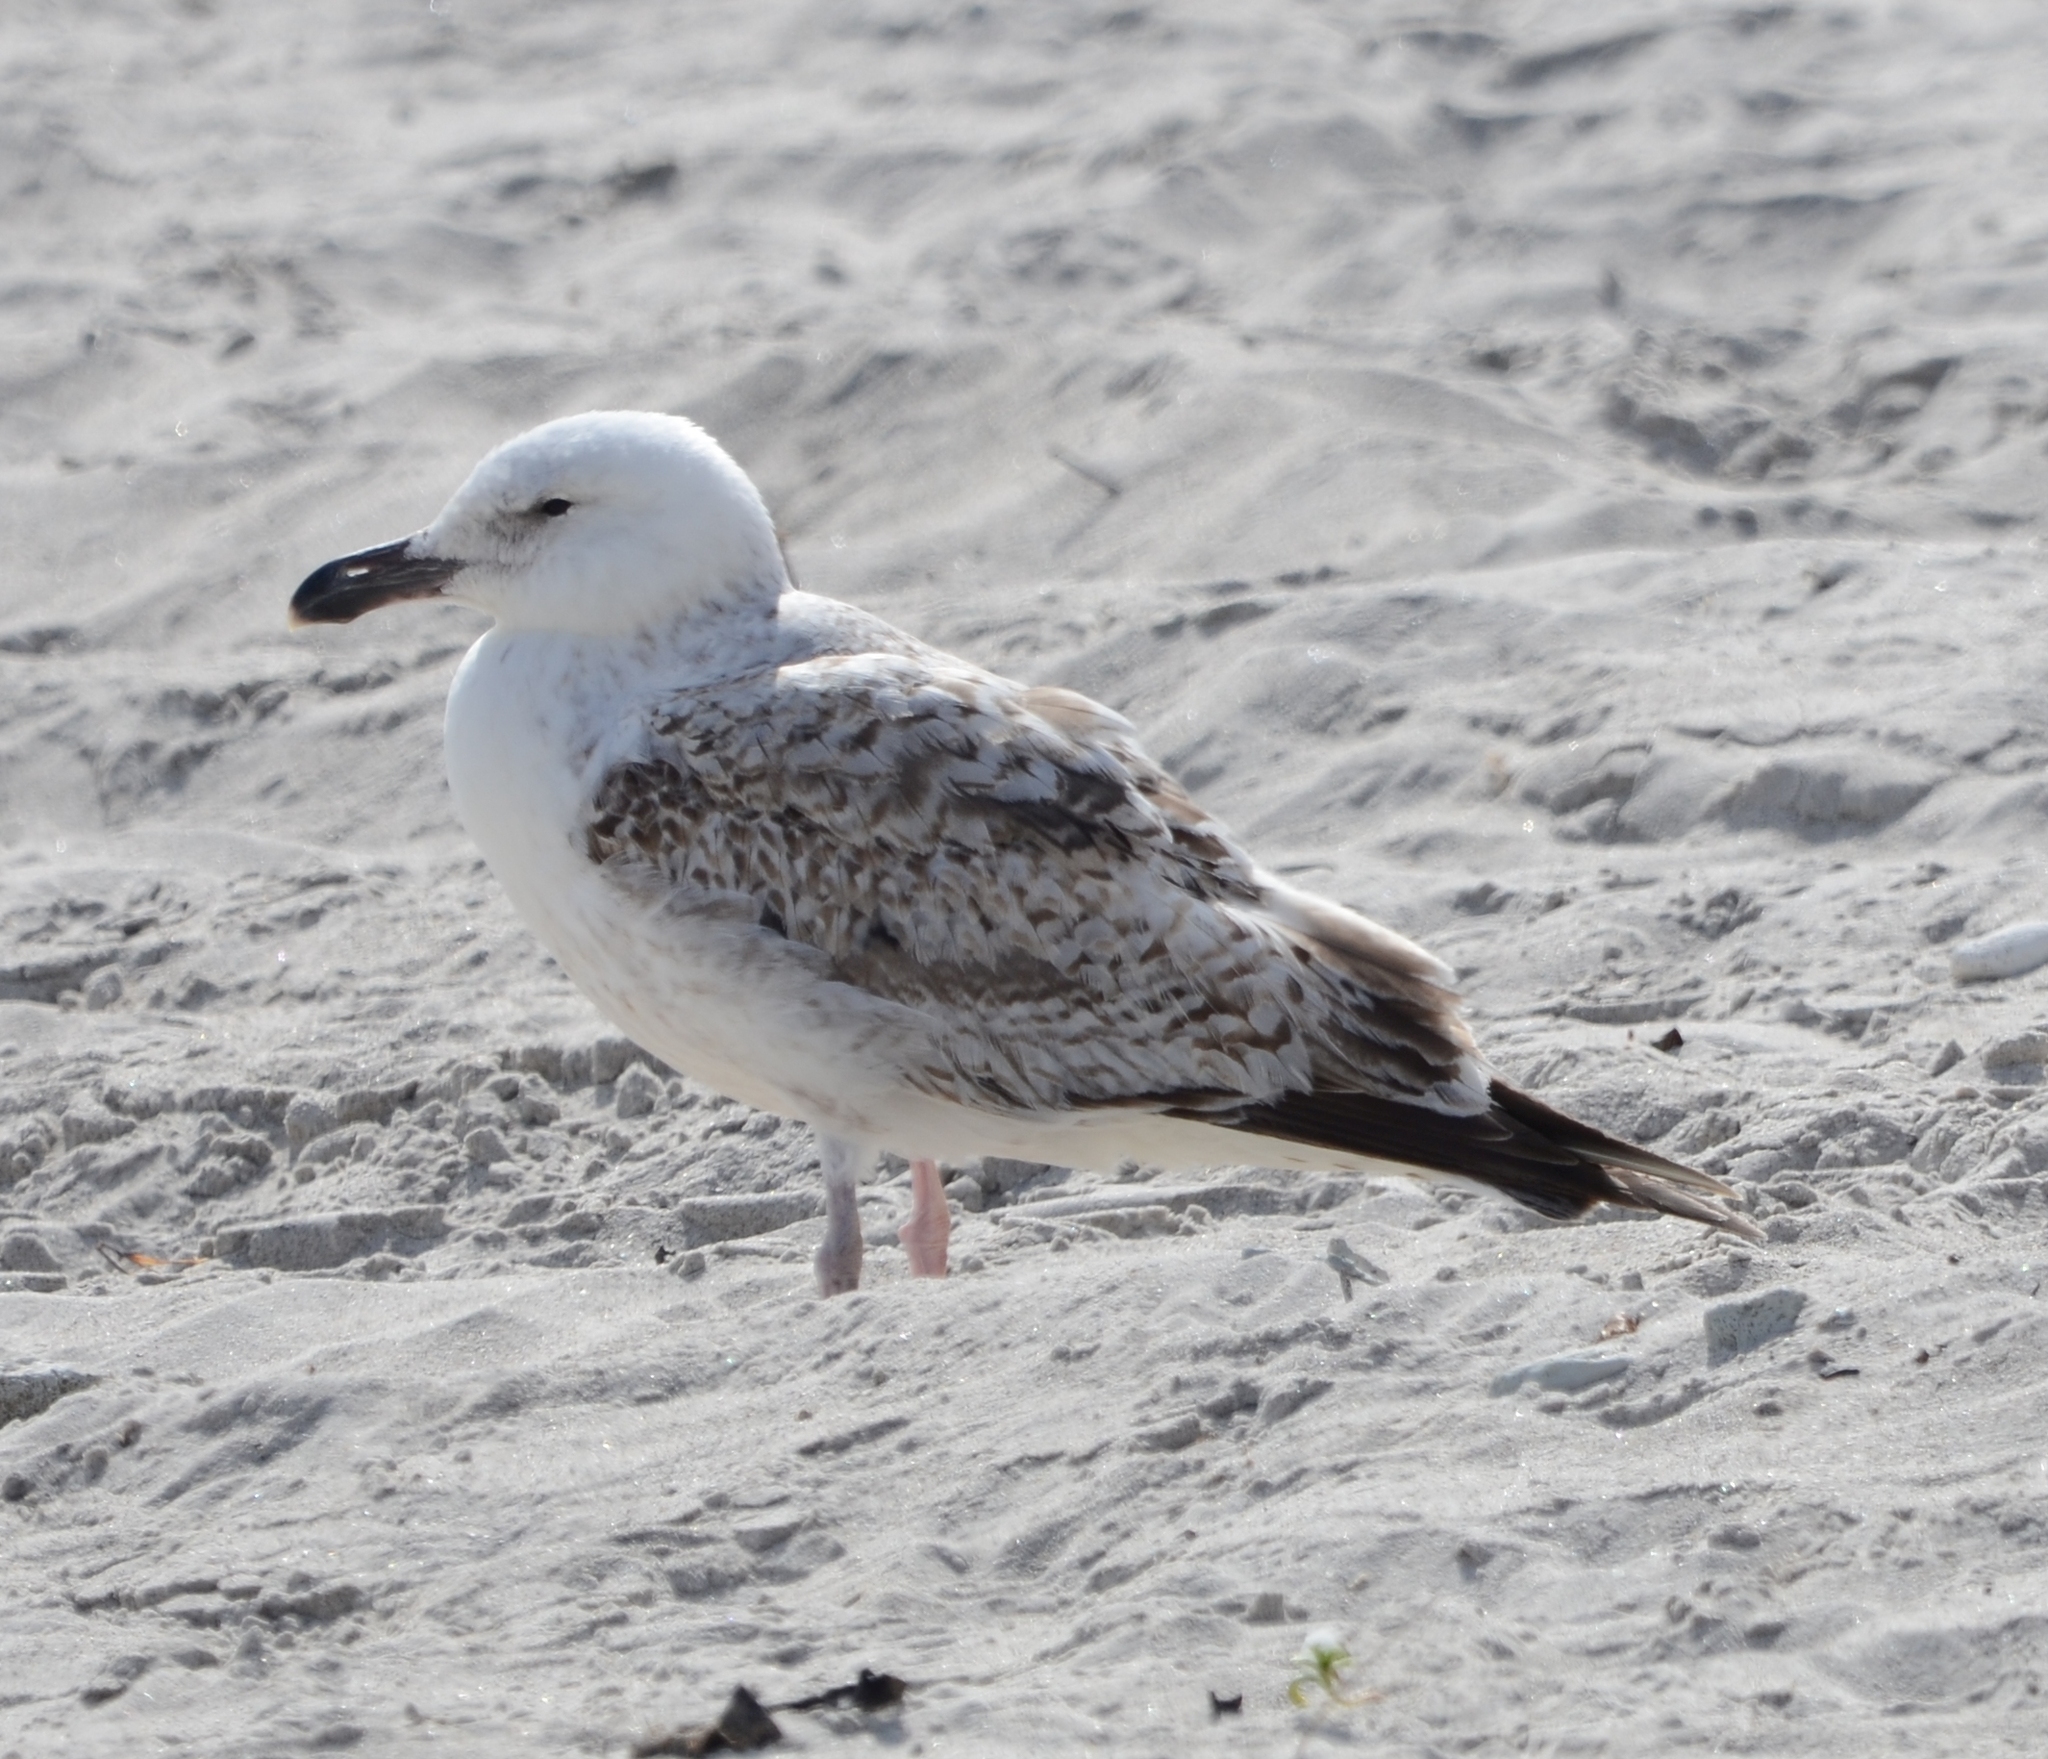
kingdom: Animalia
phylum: Chordata
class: Aves
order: Charadriiformes
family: Laridae
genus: Larus
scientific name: Larus cachinnans
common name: Caspian gull
